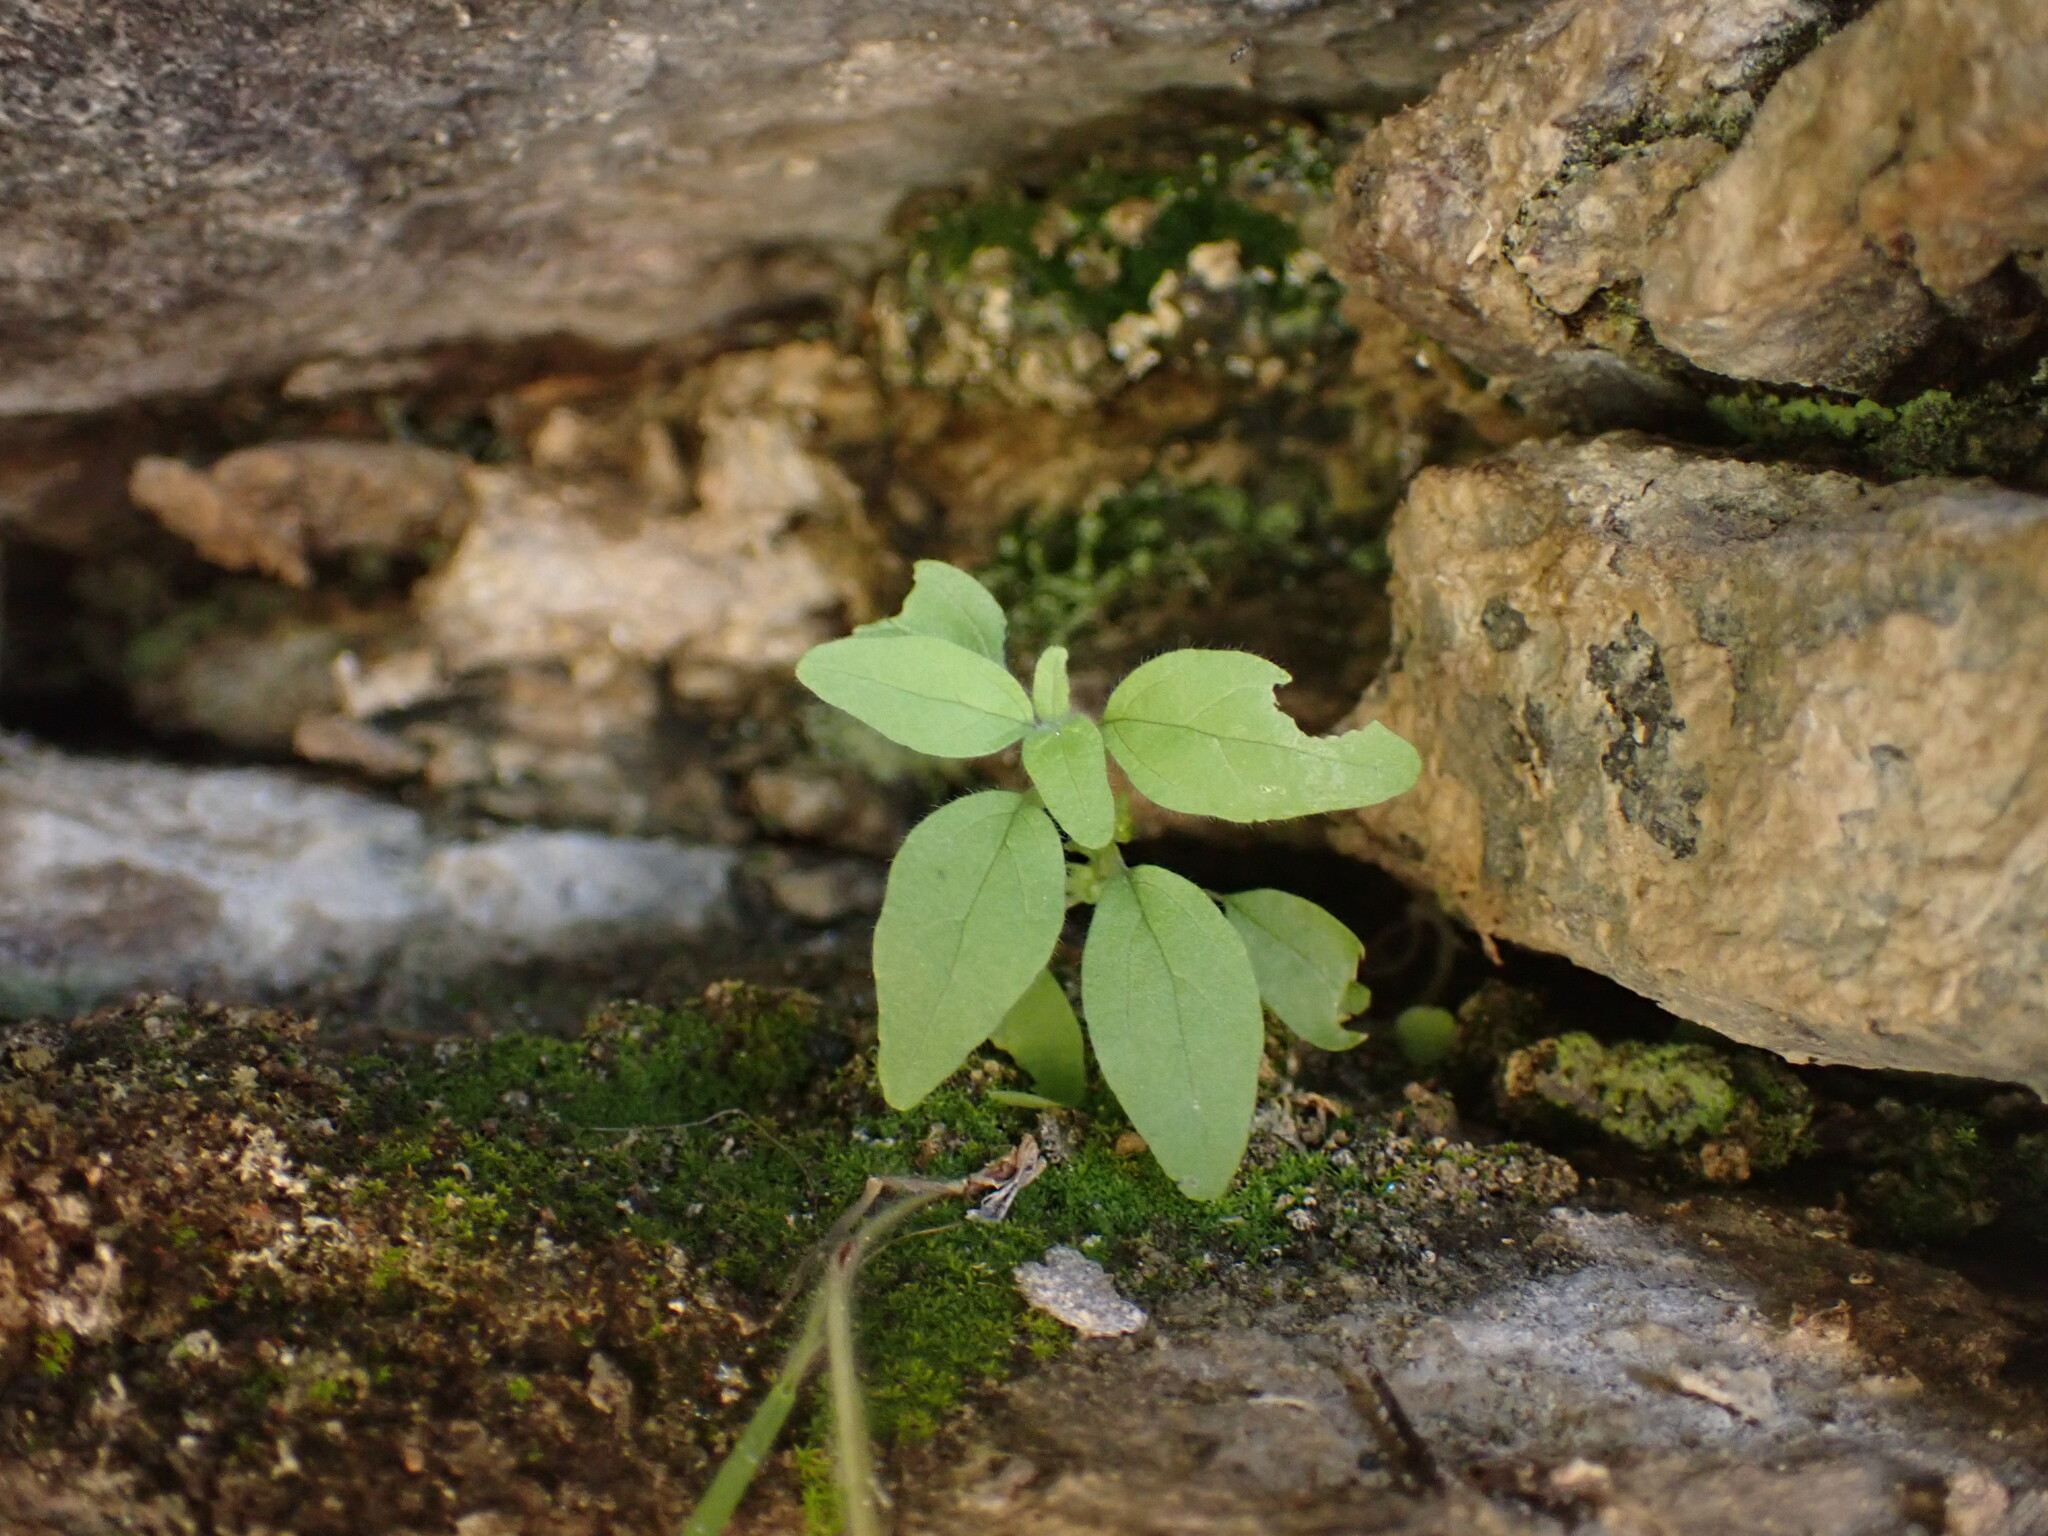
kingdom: Plantae
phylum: Tracheophyta
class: Magnoliopsida
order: Rosales
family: Urticaceae
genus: Parietaria
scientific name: Parietaria pensylvanica
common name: Pennsylvania pellitory
